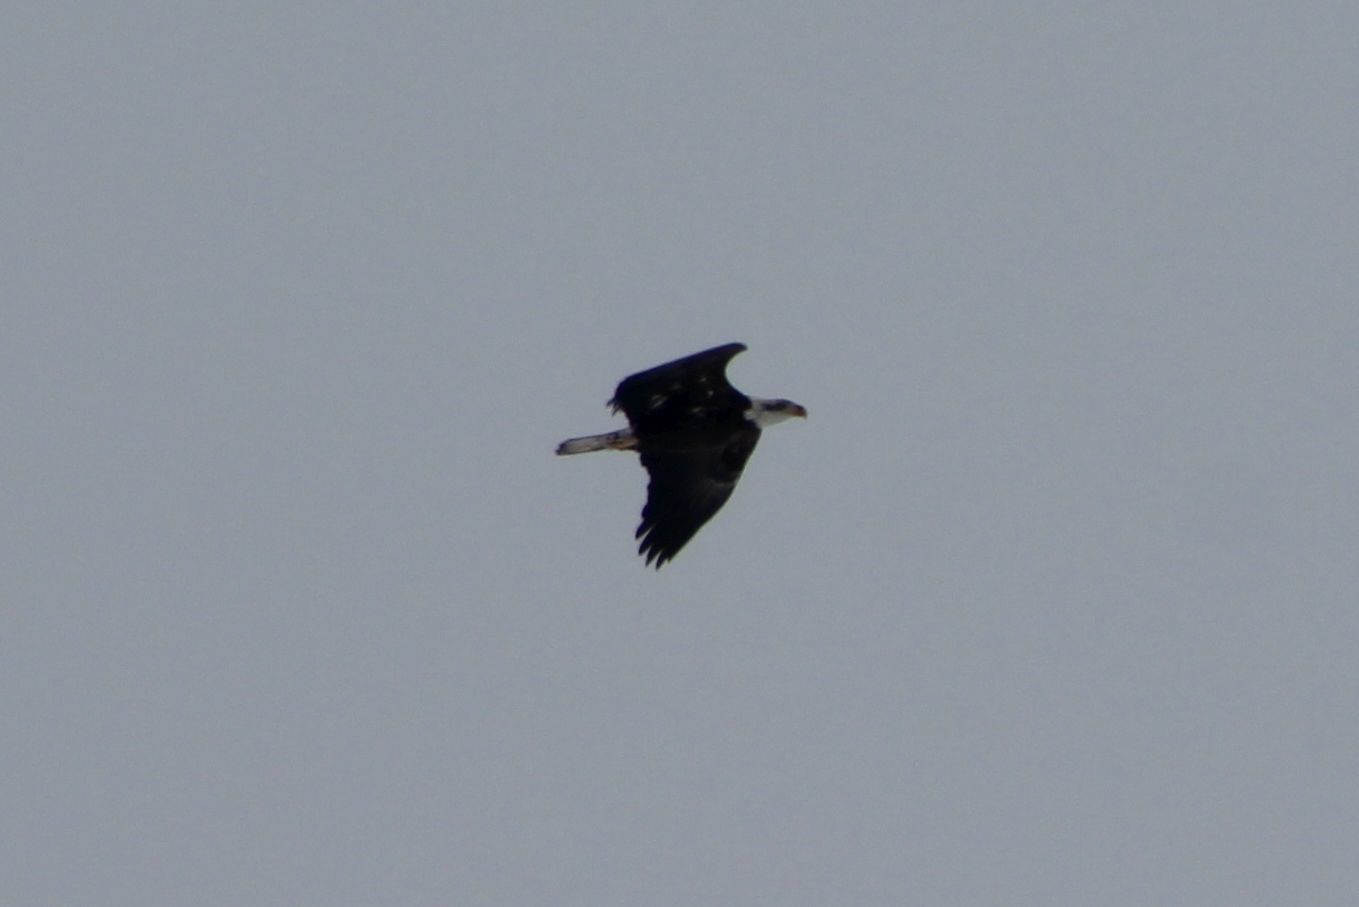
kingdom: Animalia
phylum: Chordata
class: Aves
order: Accipitriformes
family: Accipitridae
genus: Haliaeetus
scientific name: Haliaeetus leucocephalus
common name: Bald eagle
